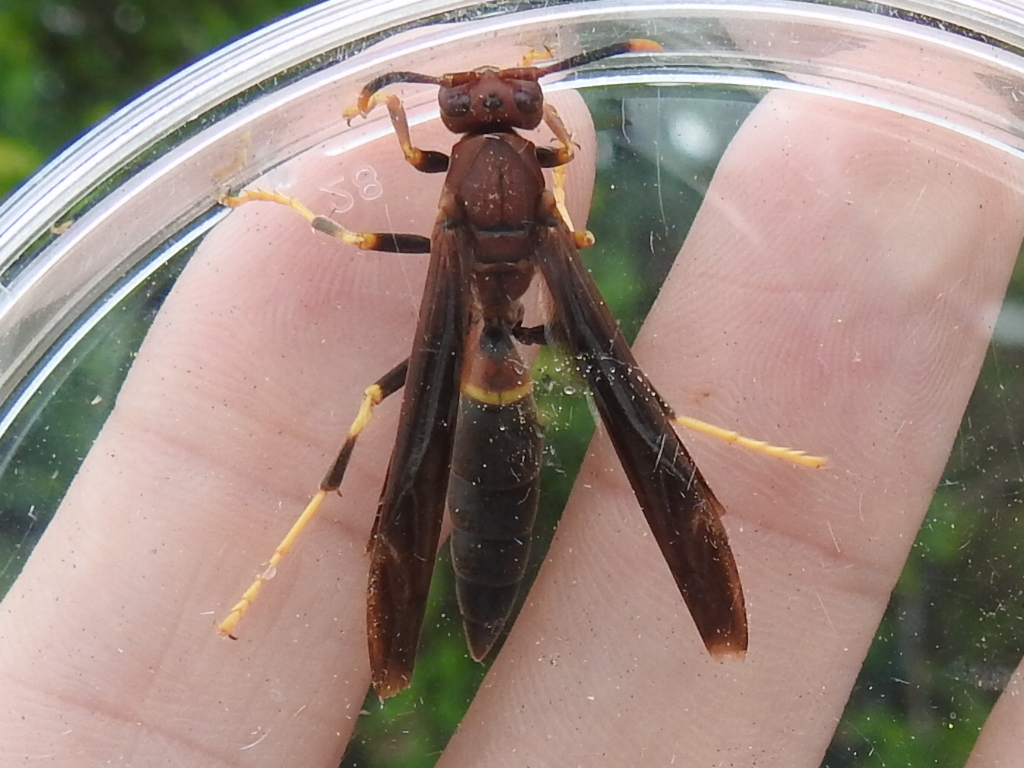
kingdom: Animalia
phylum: Arthropoda
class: Insecta
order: Hymenoptera
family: Eumenidae
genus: Polistes
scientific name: Polistes annularis
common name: Ringed paper wasp
